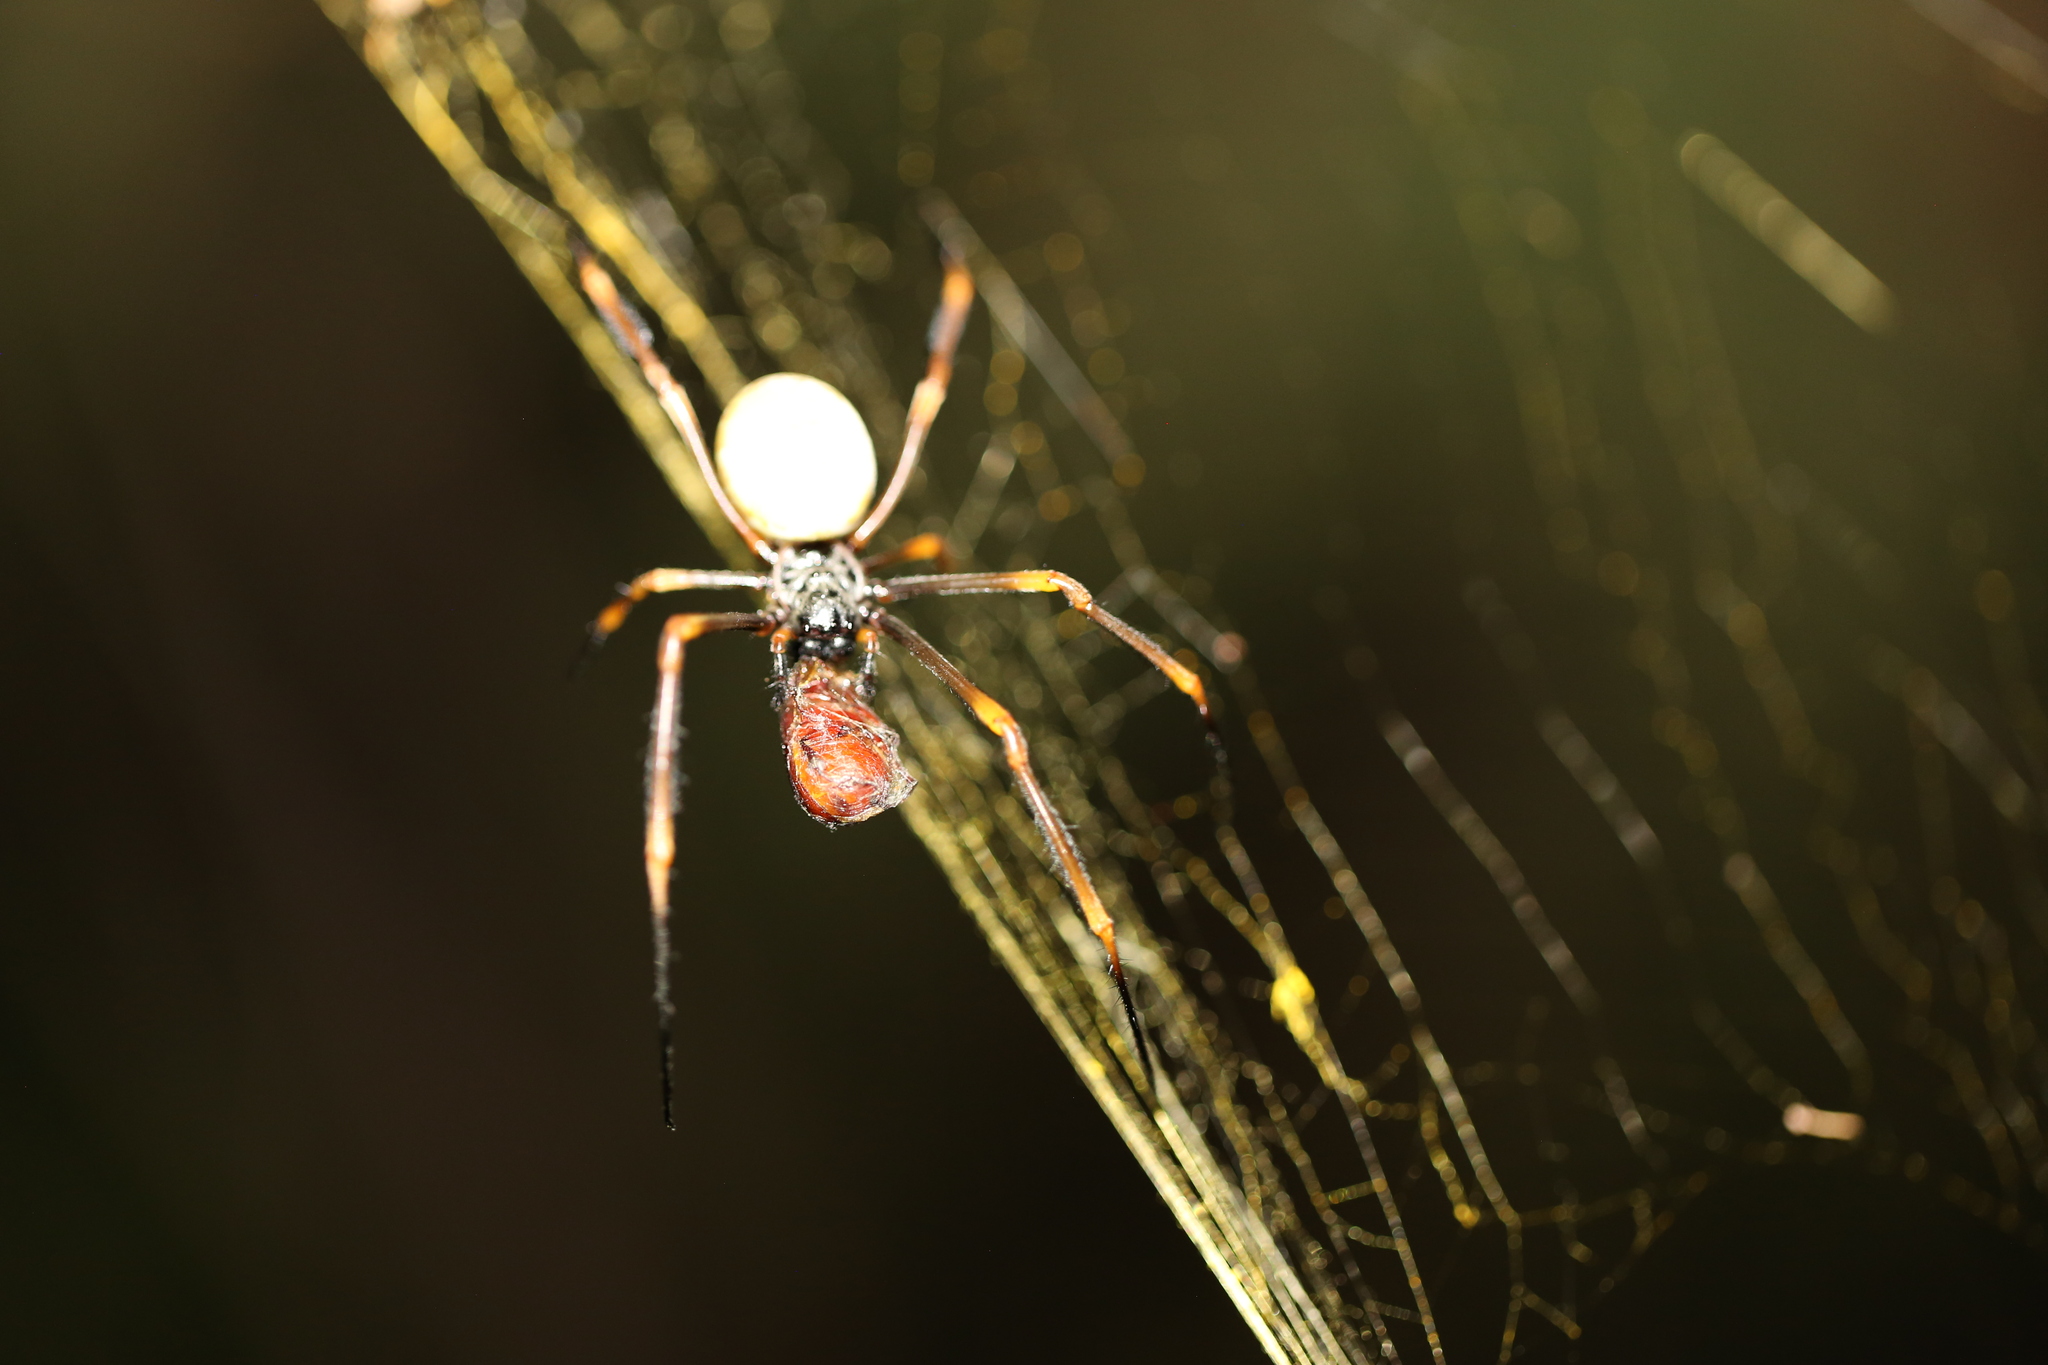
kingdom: Animalia
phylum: Arthropoda
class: Arachnida
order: Araneae
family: Araneidae
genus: Trichonephila
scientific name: Trichonephila plumipes
